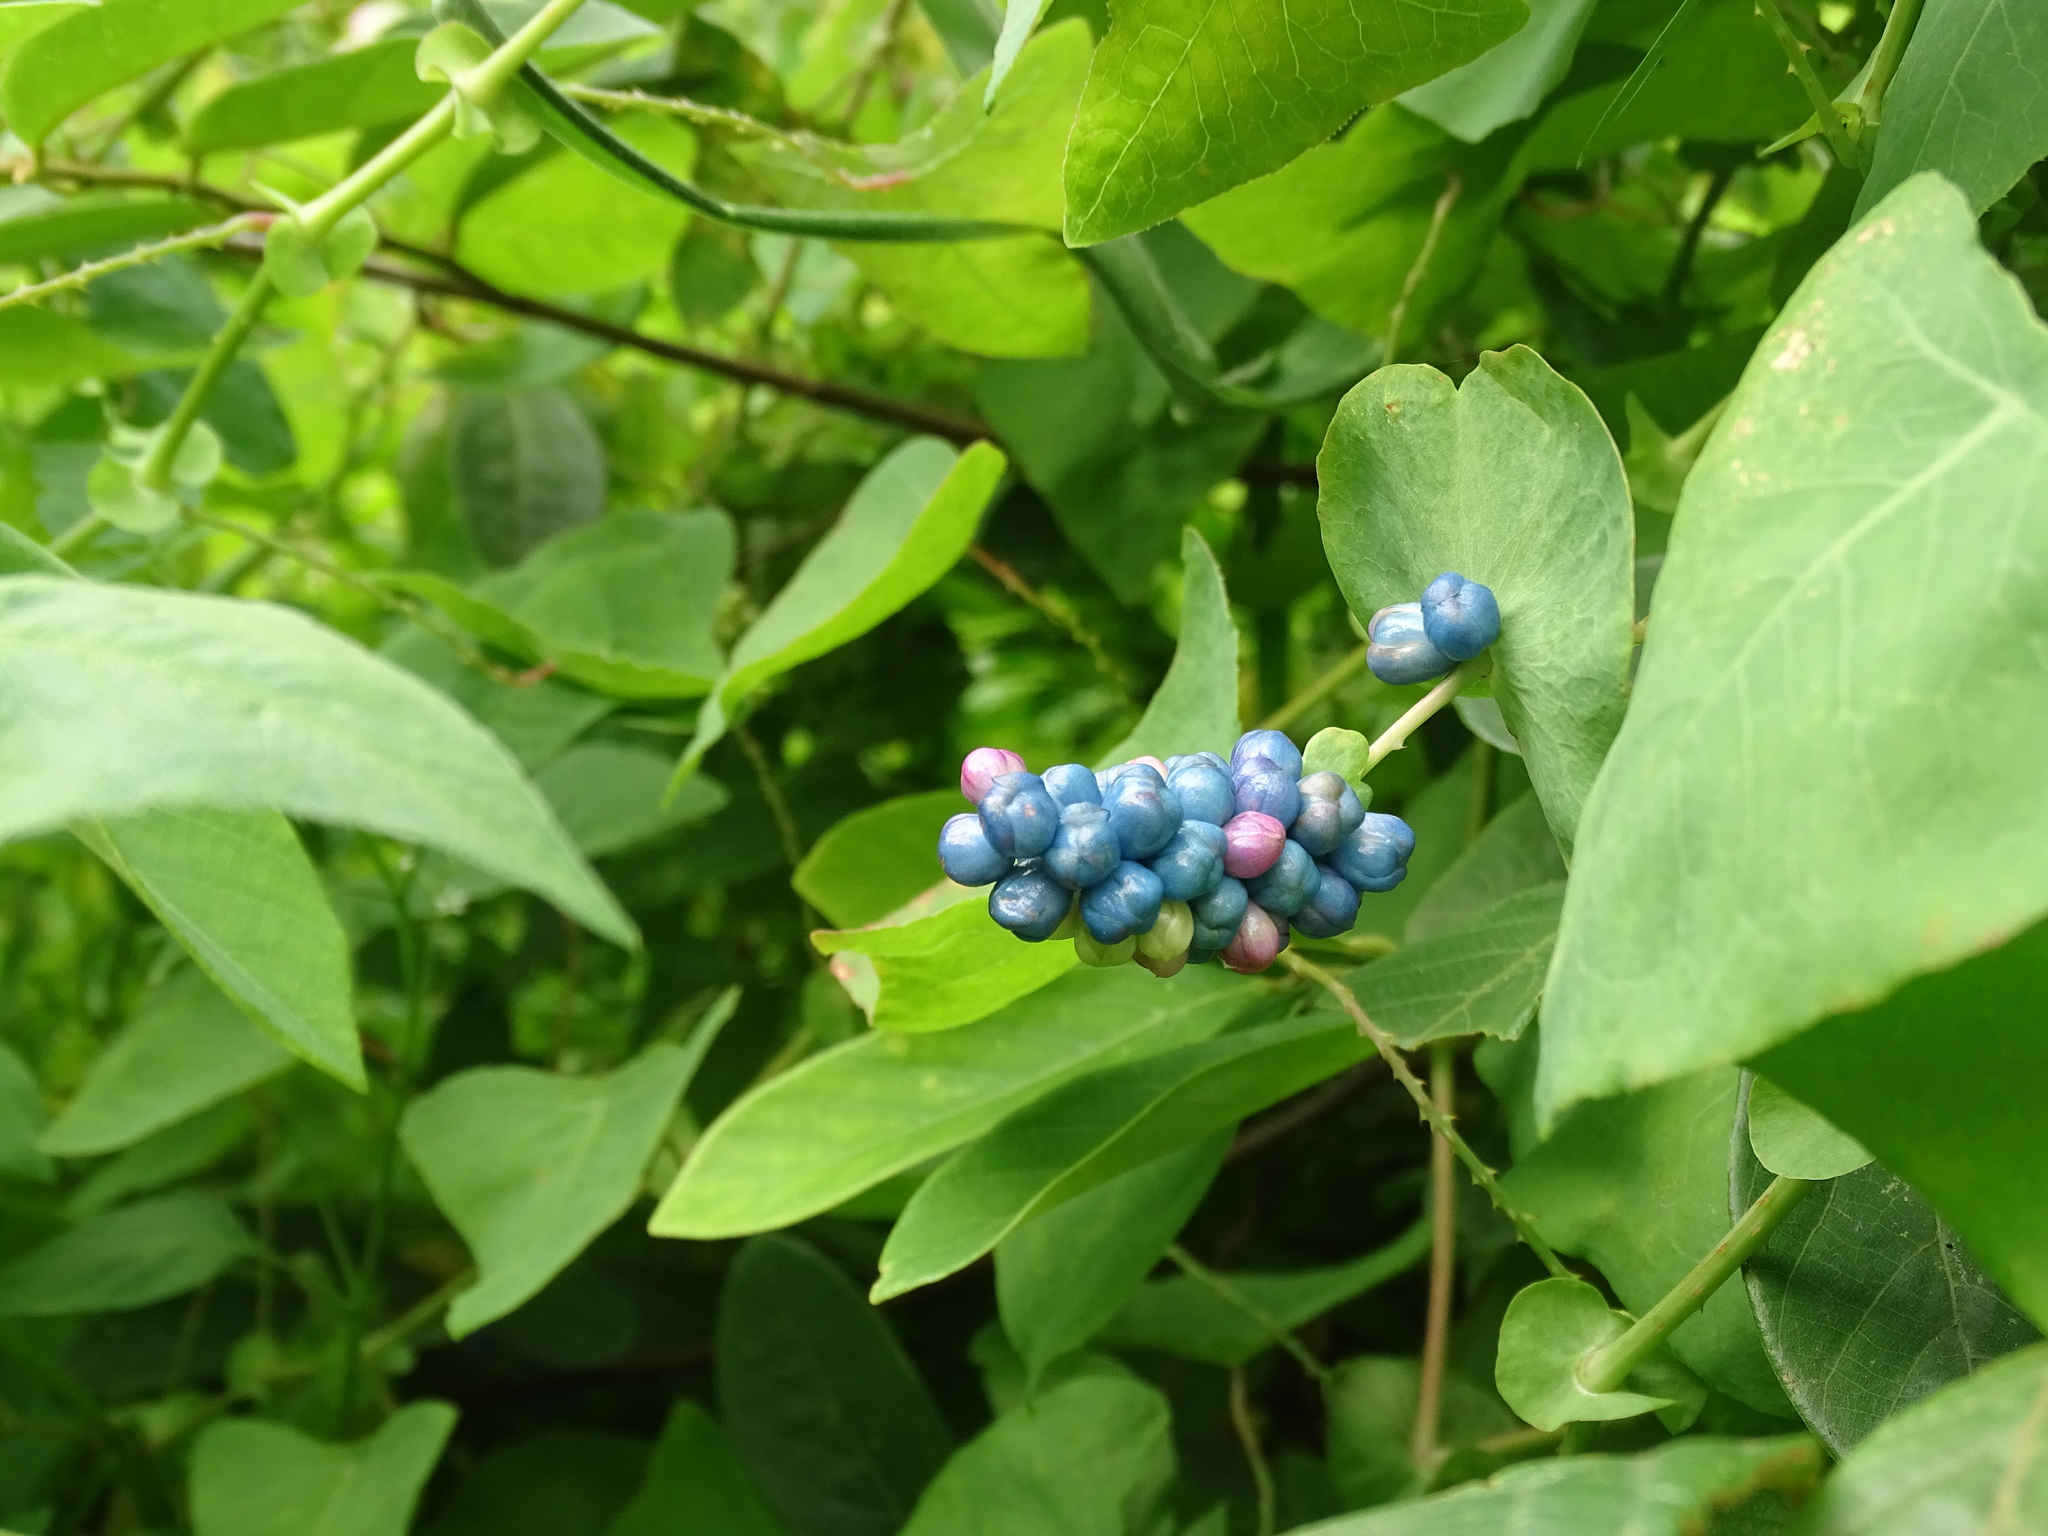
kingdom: Plantae
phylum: Tracheophyta
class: Magnoliopsida
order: Caryophyllales
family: Polygonaceae
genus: Persicaria
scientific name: Persicaria perfoliata
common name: Asiatic tearthumb
